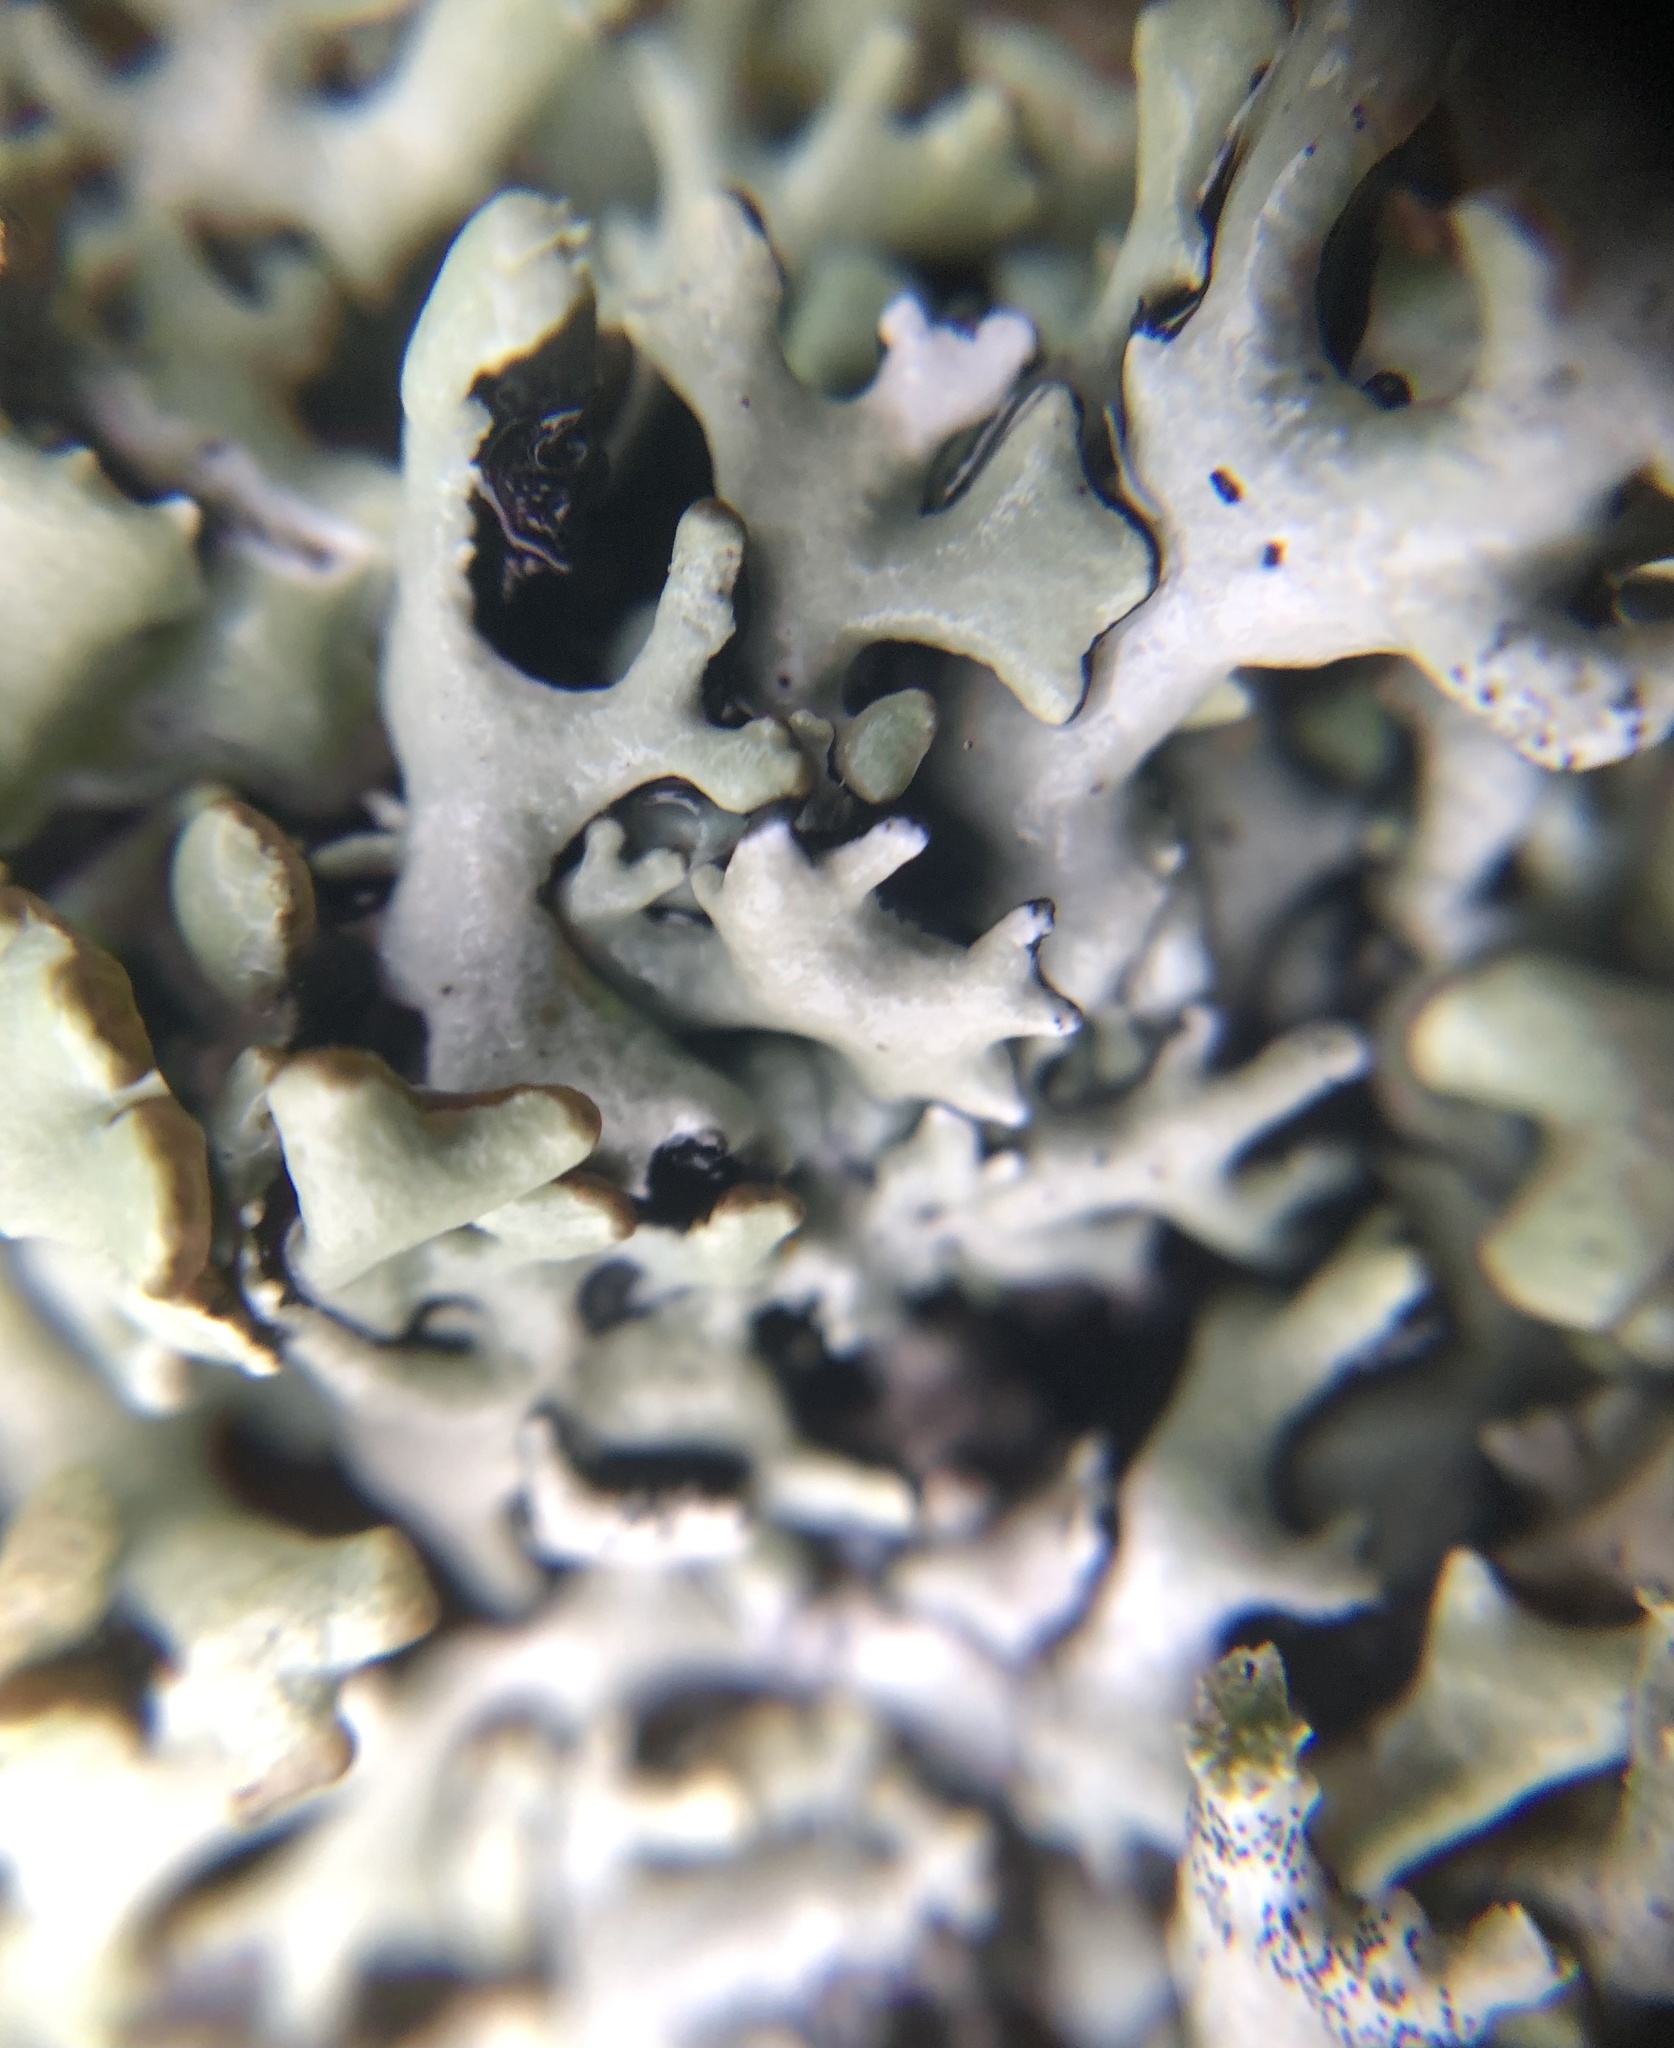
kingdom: Fungi
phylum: Ascomycota
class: Lecanoromycetes
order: Lecanorales
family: Parmeliaceae
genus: Hypogymnia
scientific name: Hypogymnia tubulosa
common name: Powder-headed tube lichen
